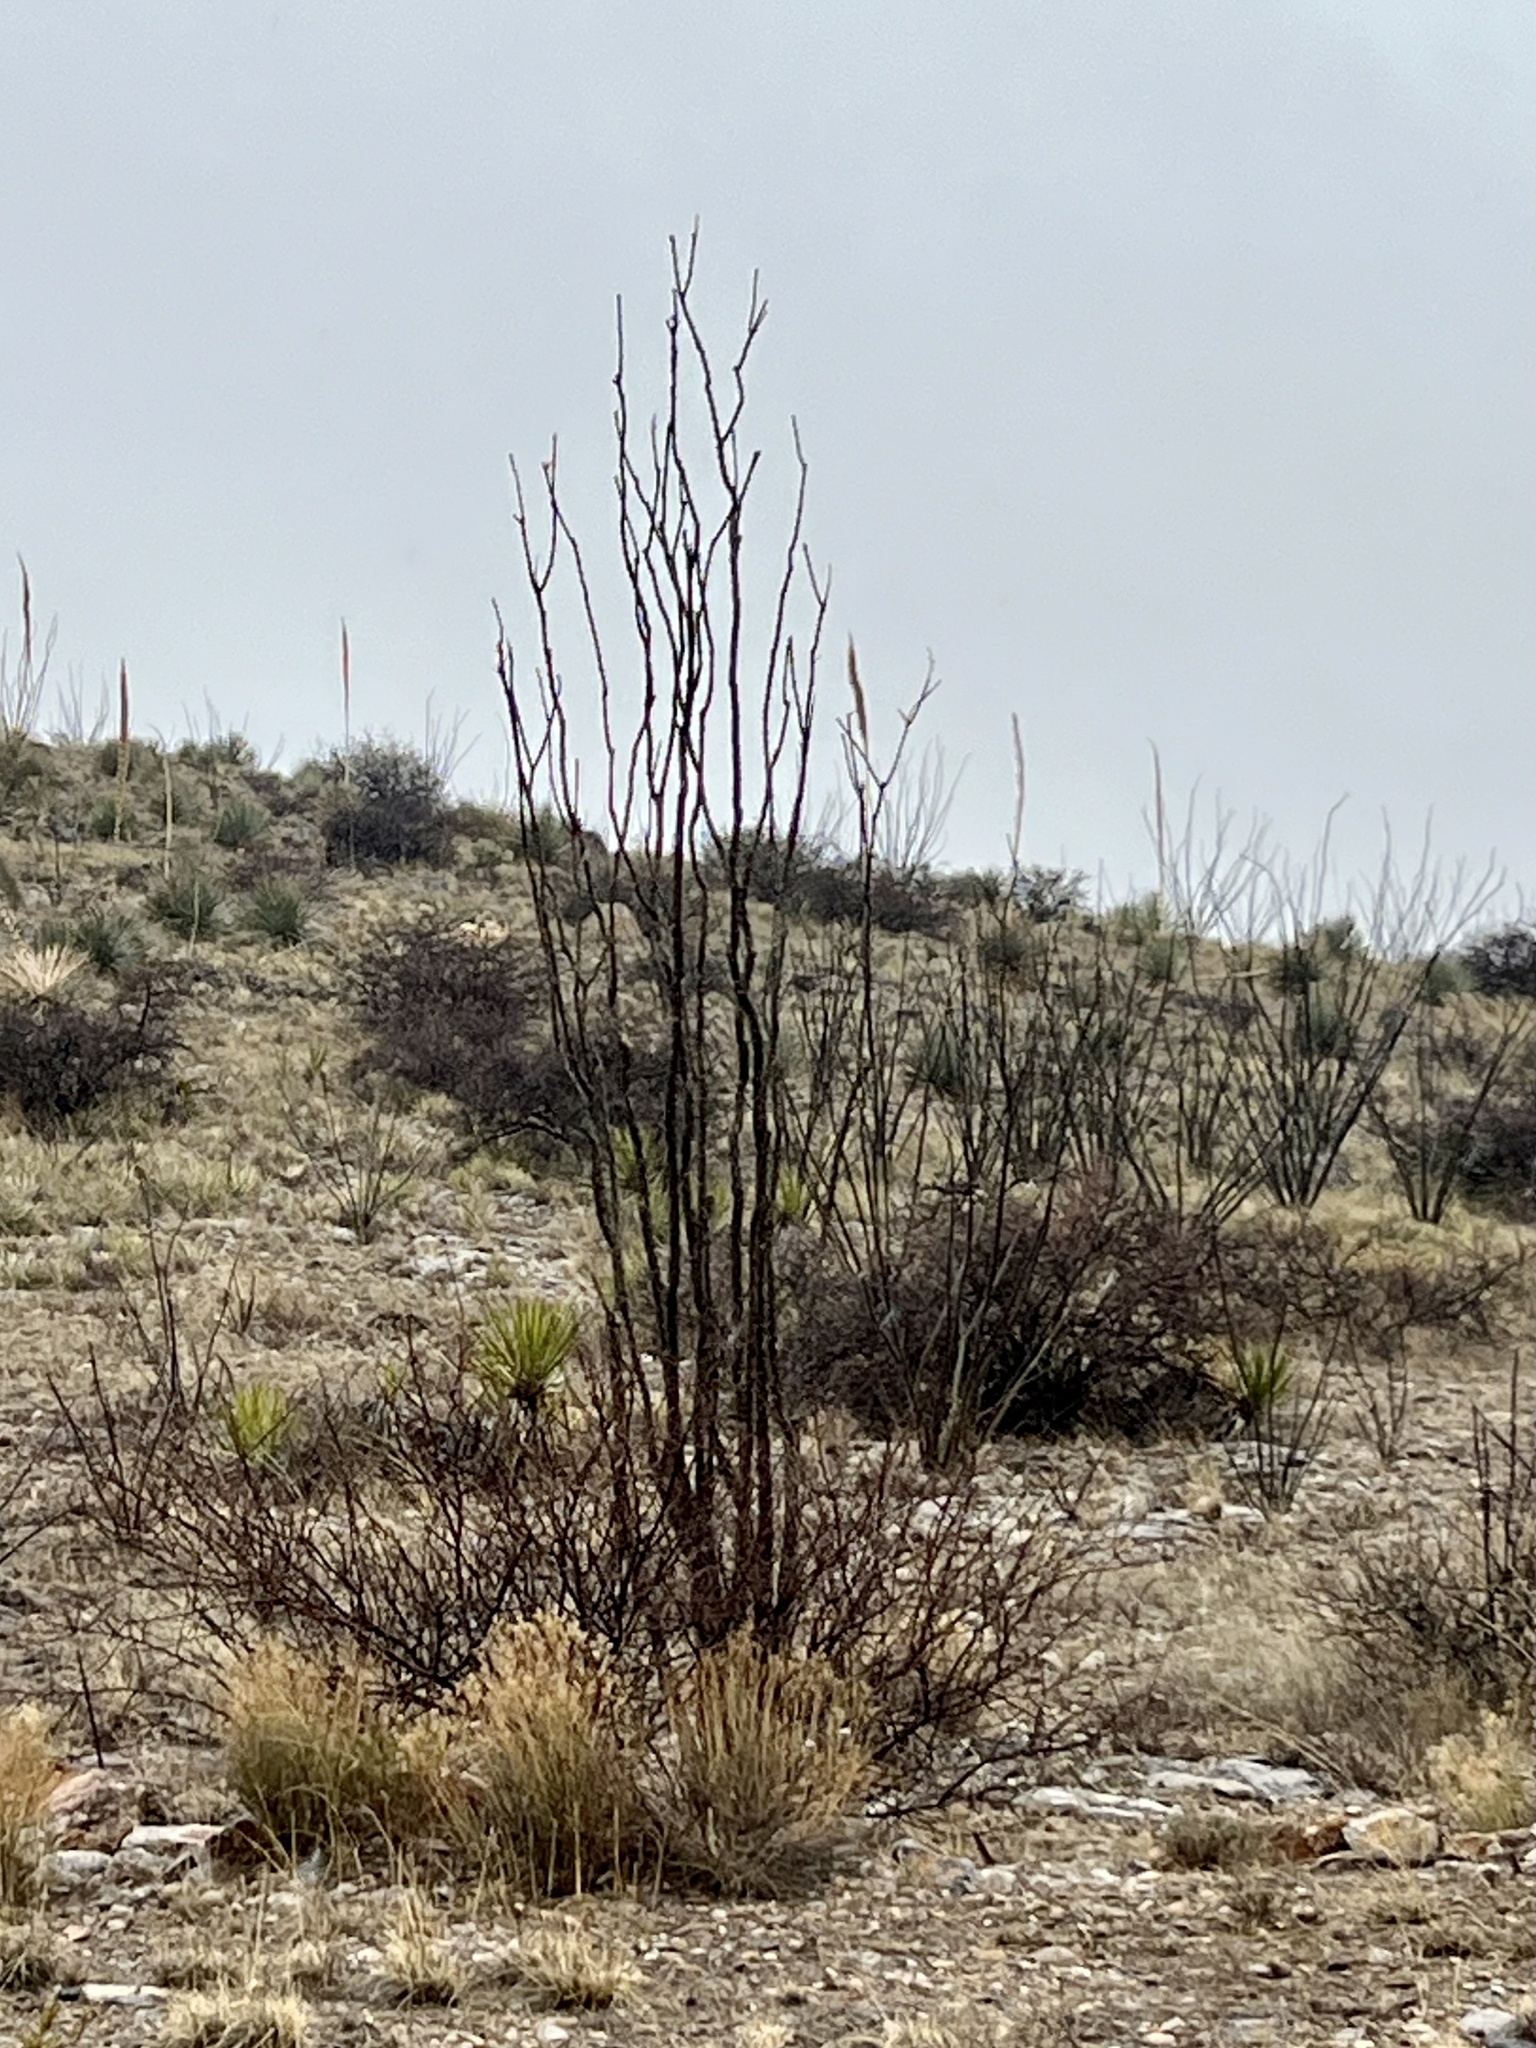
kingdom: Plantae
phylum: Tracheophyta
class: Magnoliopsida
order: Ericales
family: Fouquieriaceae
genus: Fouquieria
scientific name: Fouquieria splendens
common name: Vine-cactus
